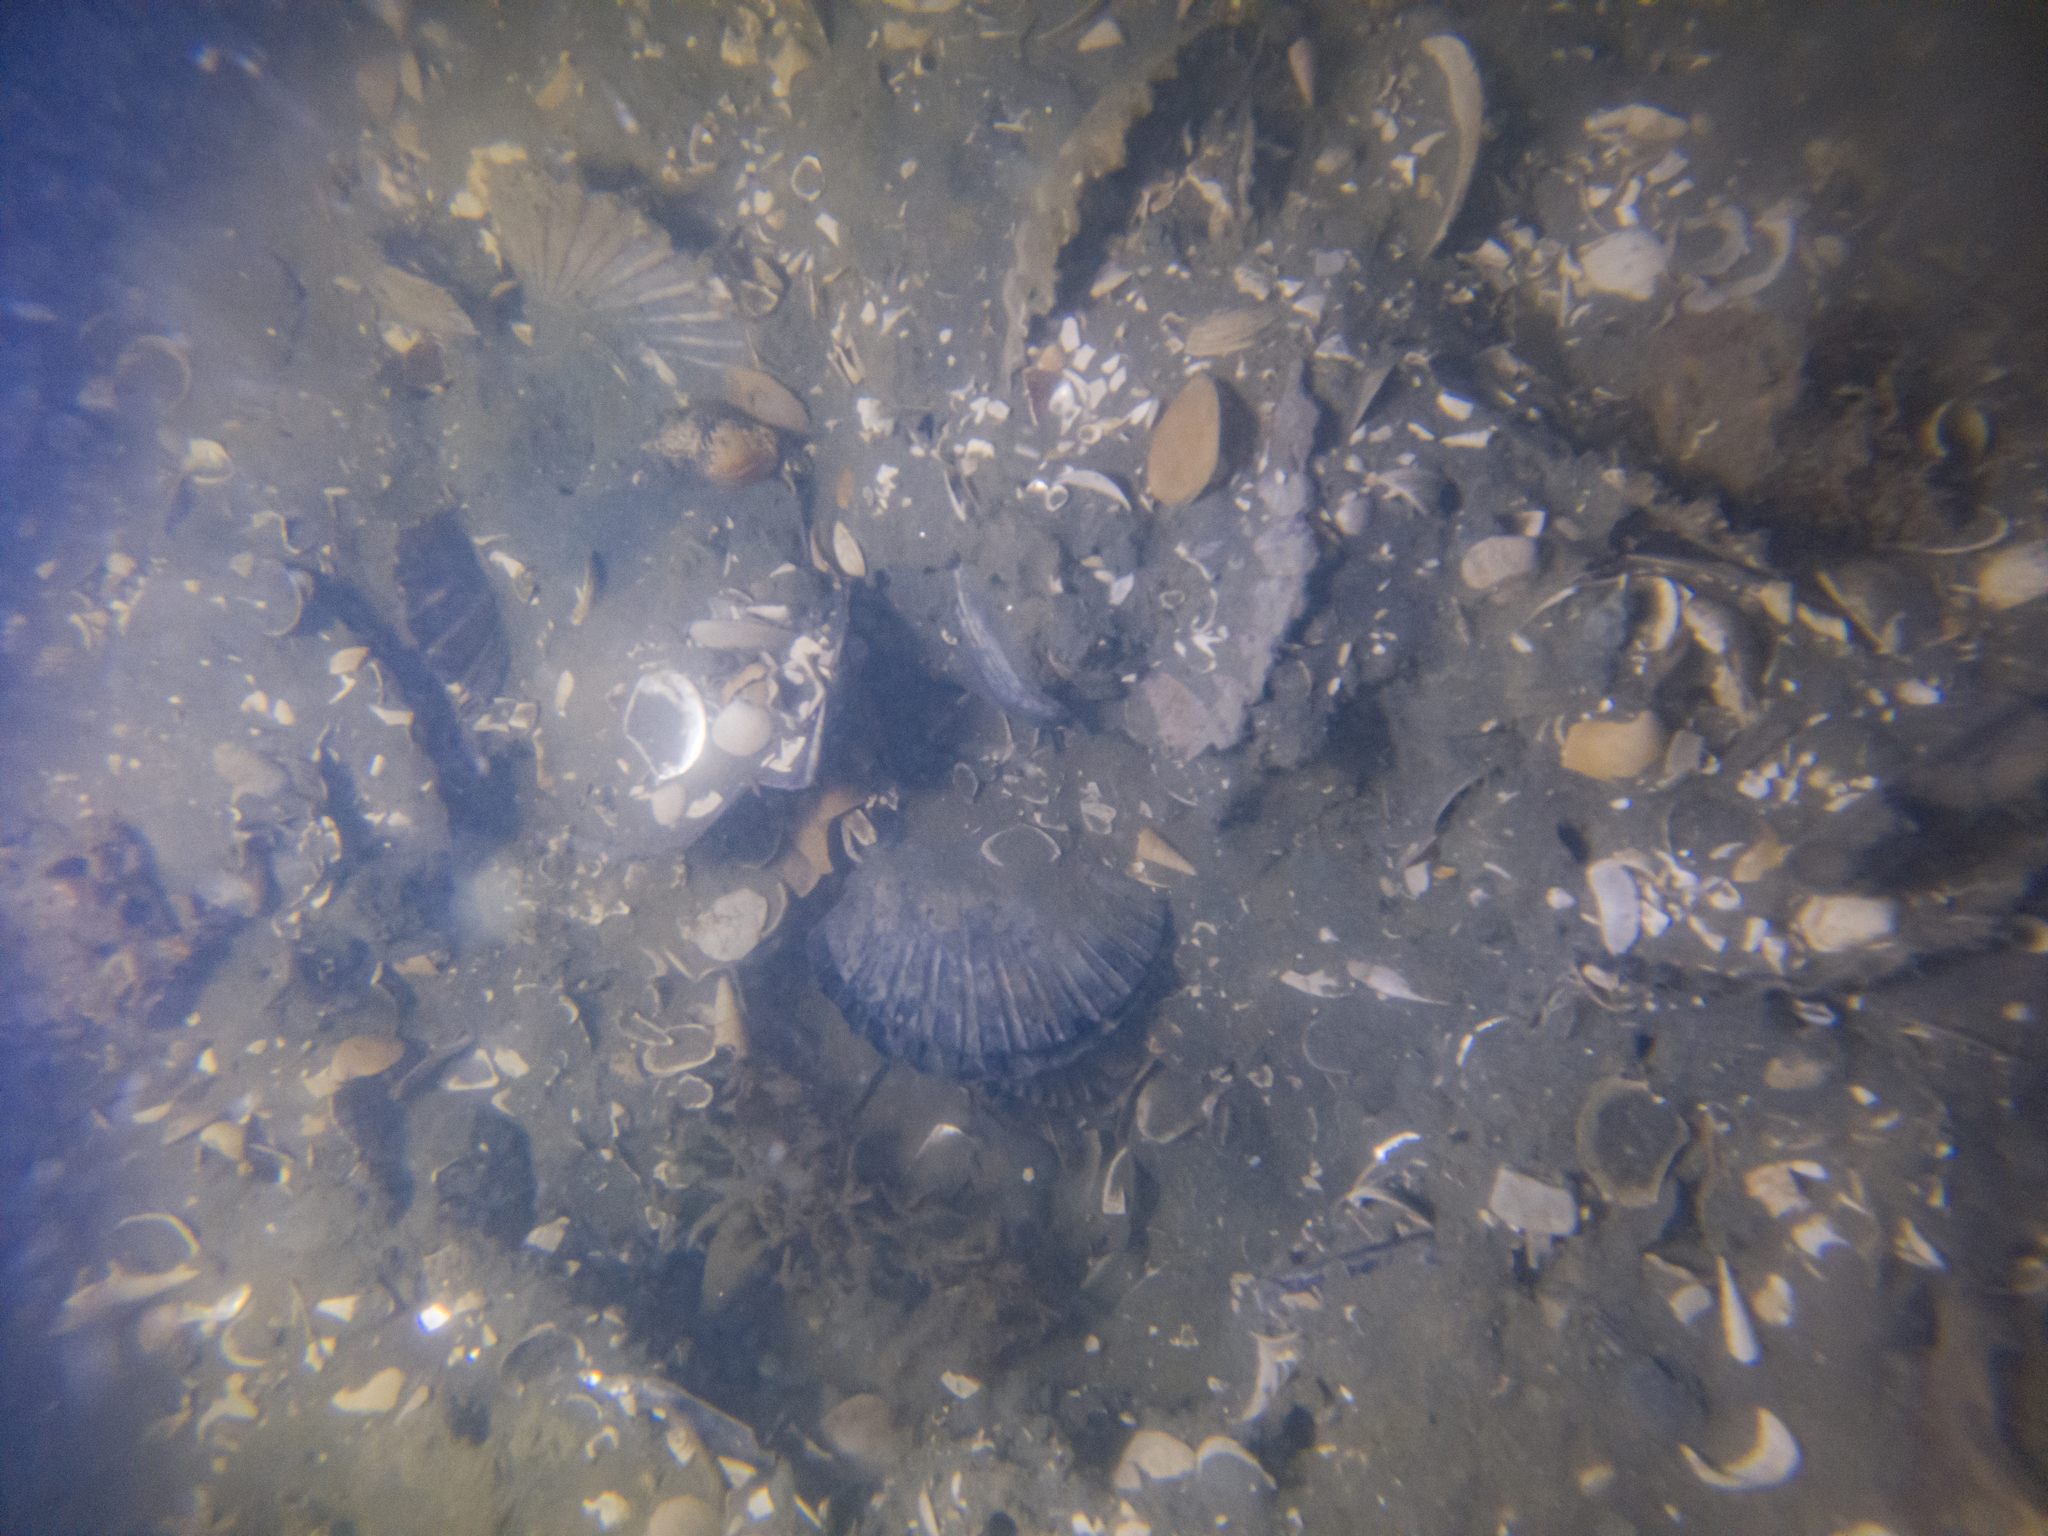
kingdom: Animalia
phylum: Mollusca
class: Gastropoda
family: Turritellidae
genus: Maoricolpus
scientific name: Maoricolpus roseus
